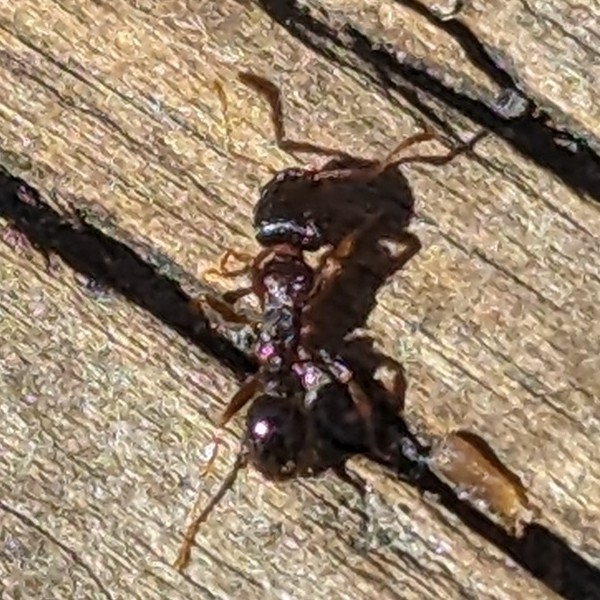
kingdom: Animalia
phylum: Arthropoda
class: Insecta
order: Hymenoptera
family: Formicidae
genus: Tetramorium
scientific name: Tetramorium immigrans
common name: Pavement ant
